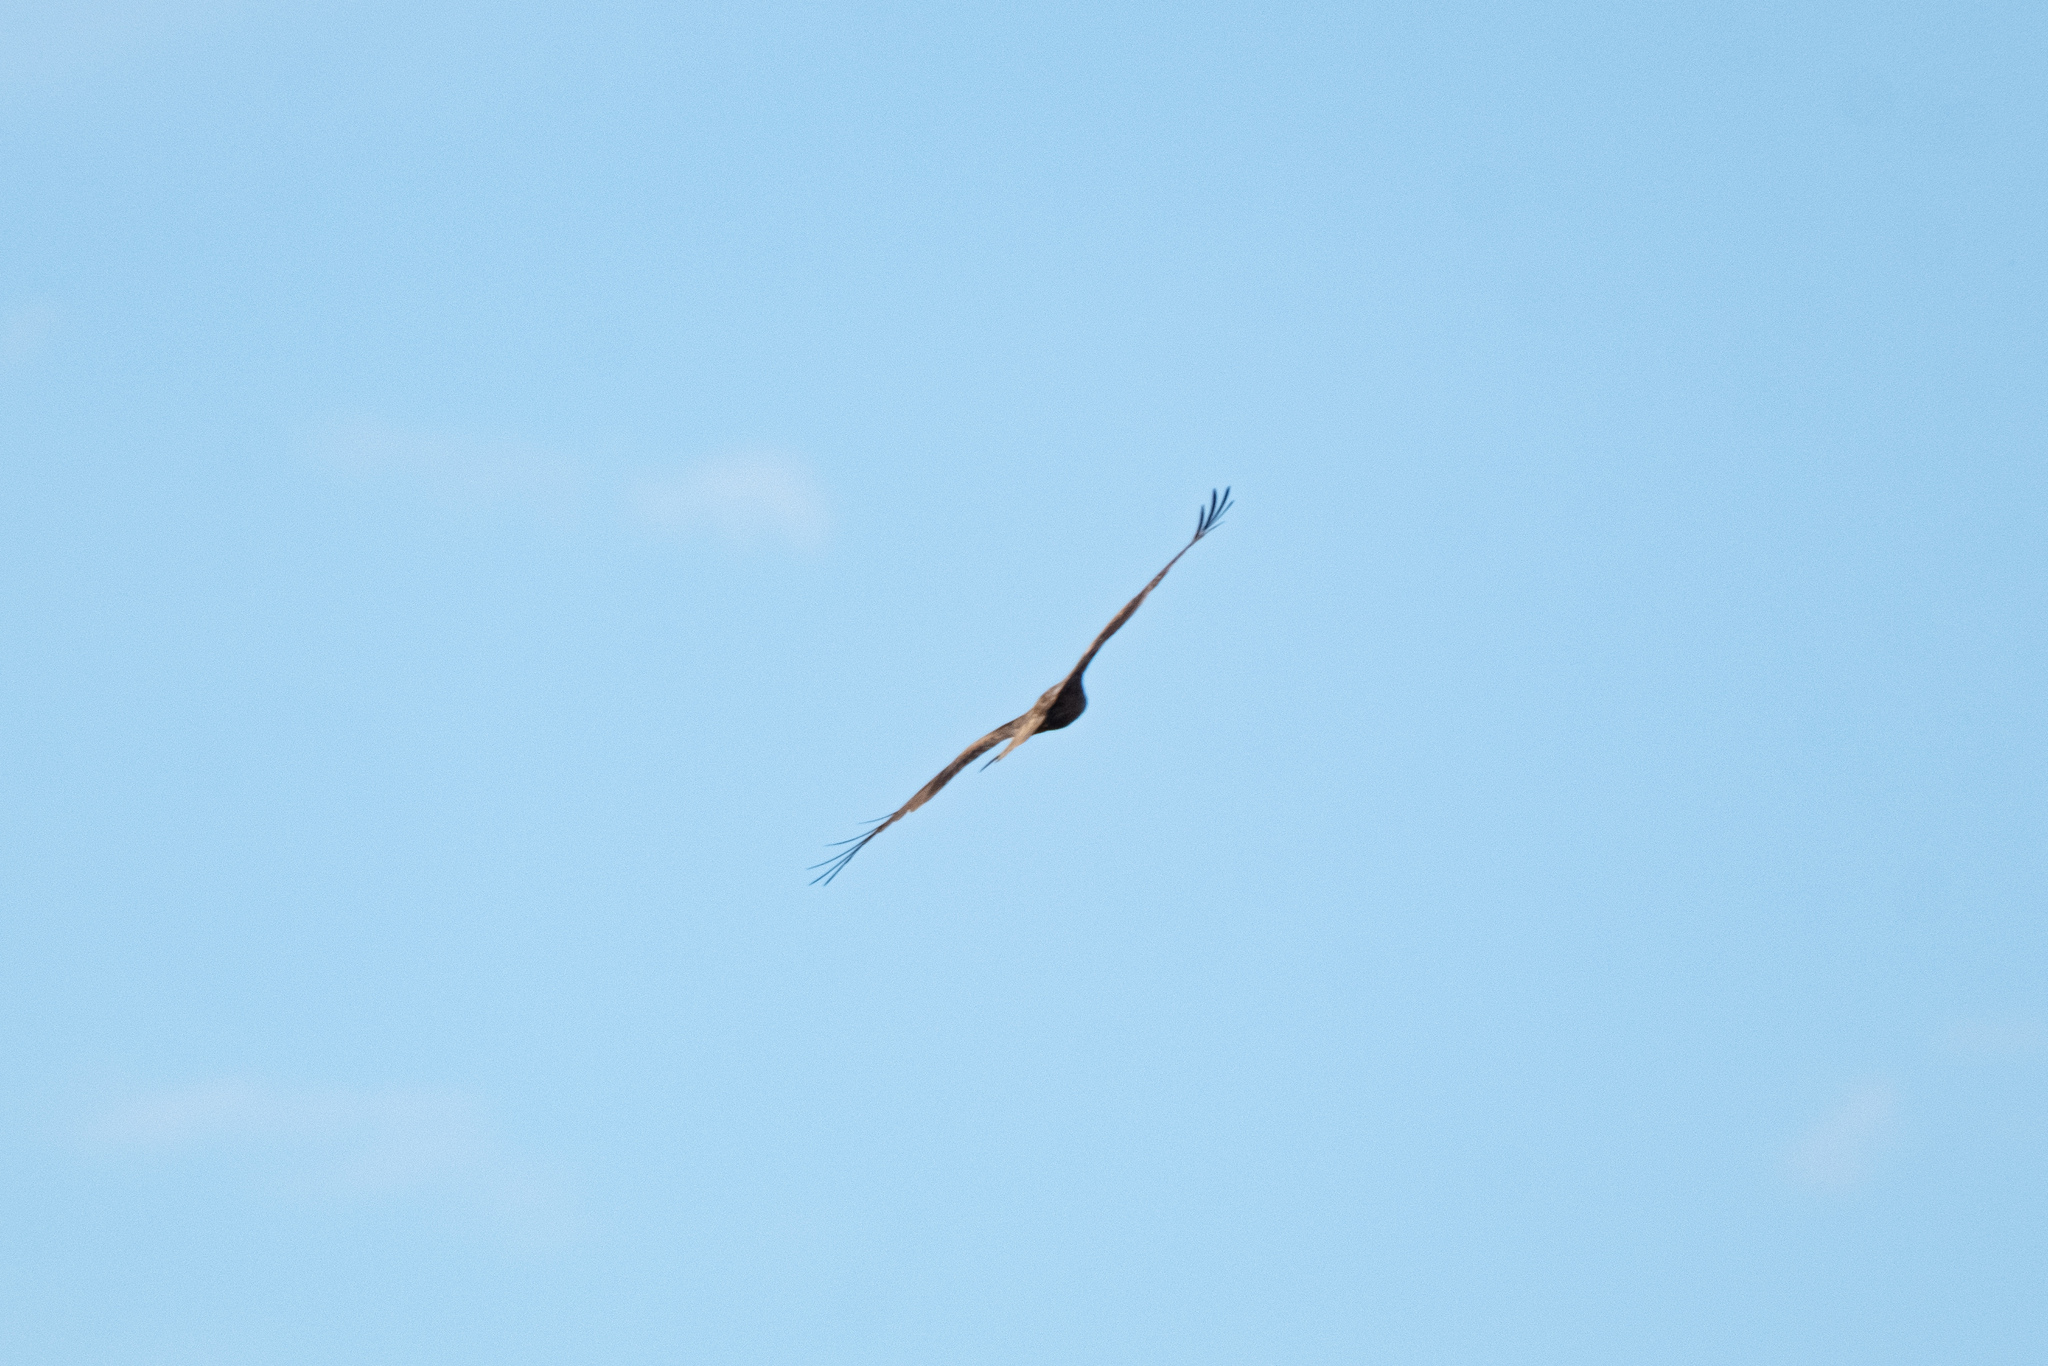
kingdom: Animalia
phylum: Chordata
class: Aves
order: Accipitriformes
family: Accipitridae
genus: Milvus
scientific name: Milvus migrans
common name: Black kite
